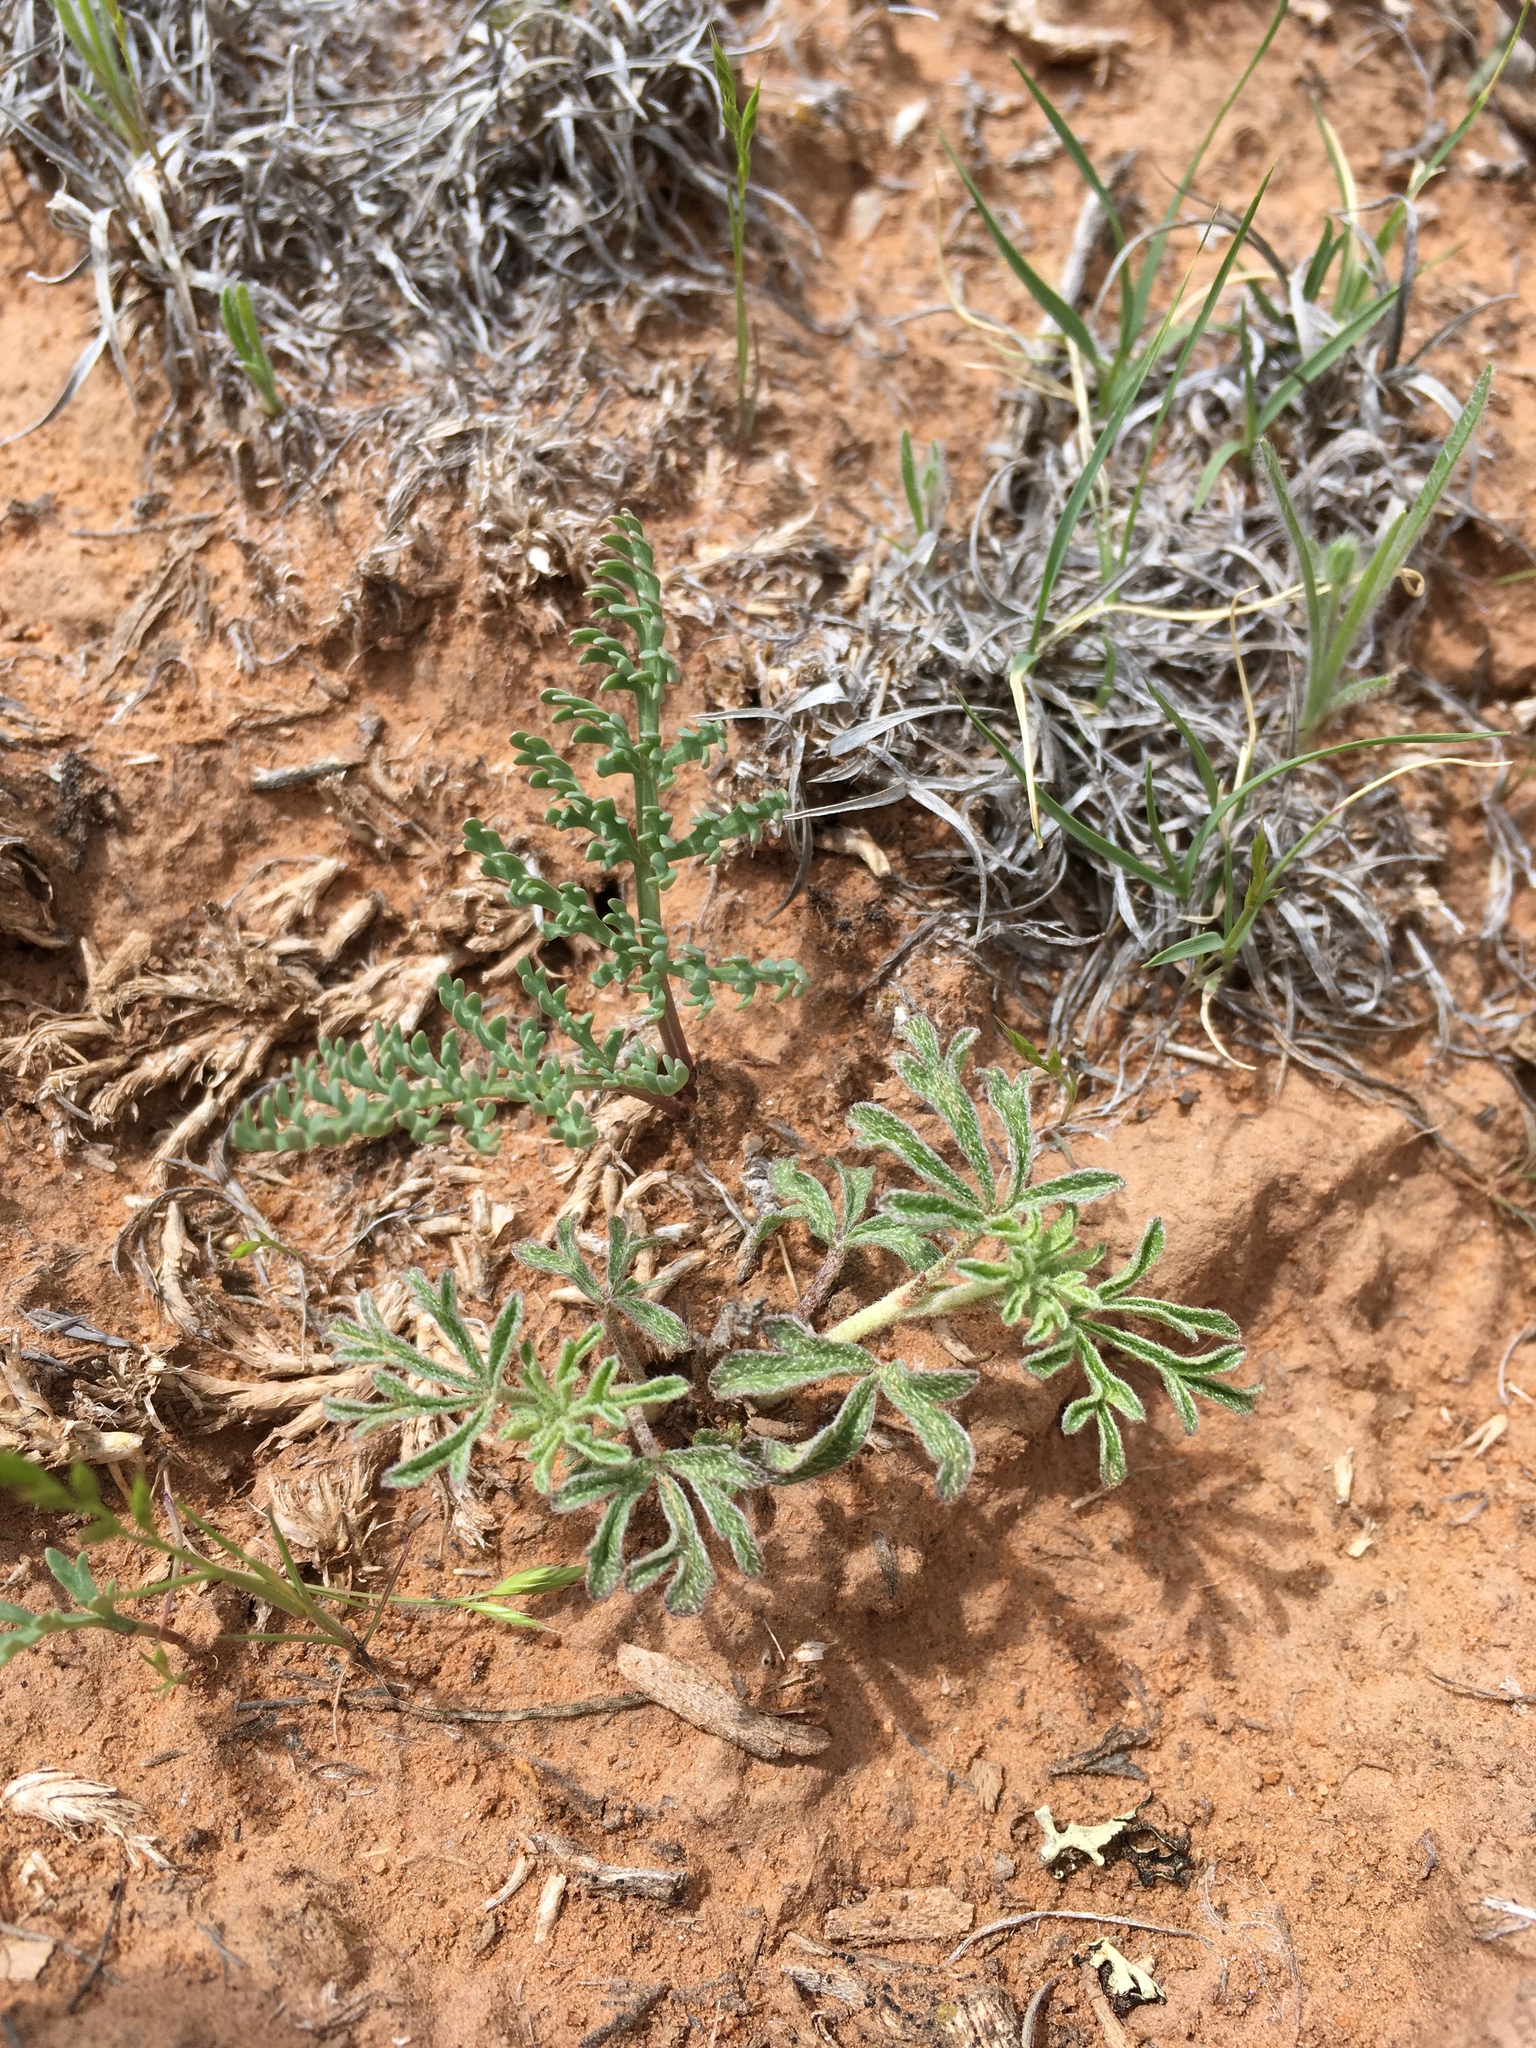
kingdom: Plantae
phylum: Tracheophyta
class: Magnoliopsida
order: Malvales
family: Malvaceae
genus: Sphaeralcea
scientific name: Sphaeralcea coccinea
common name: Moss-rose
